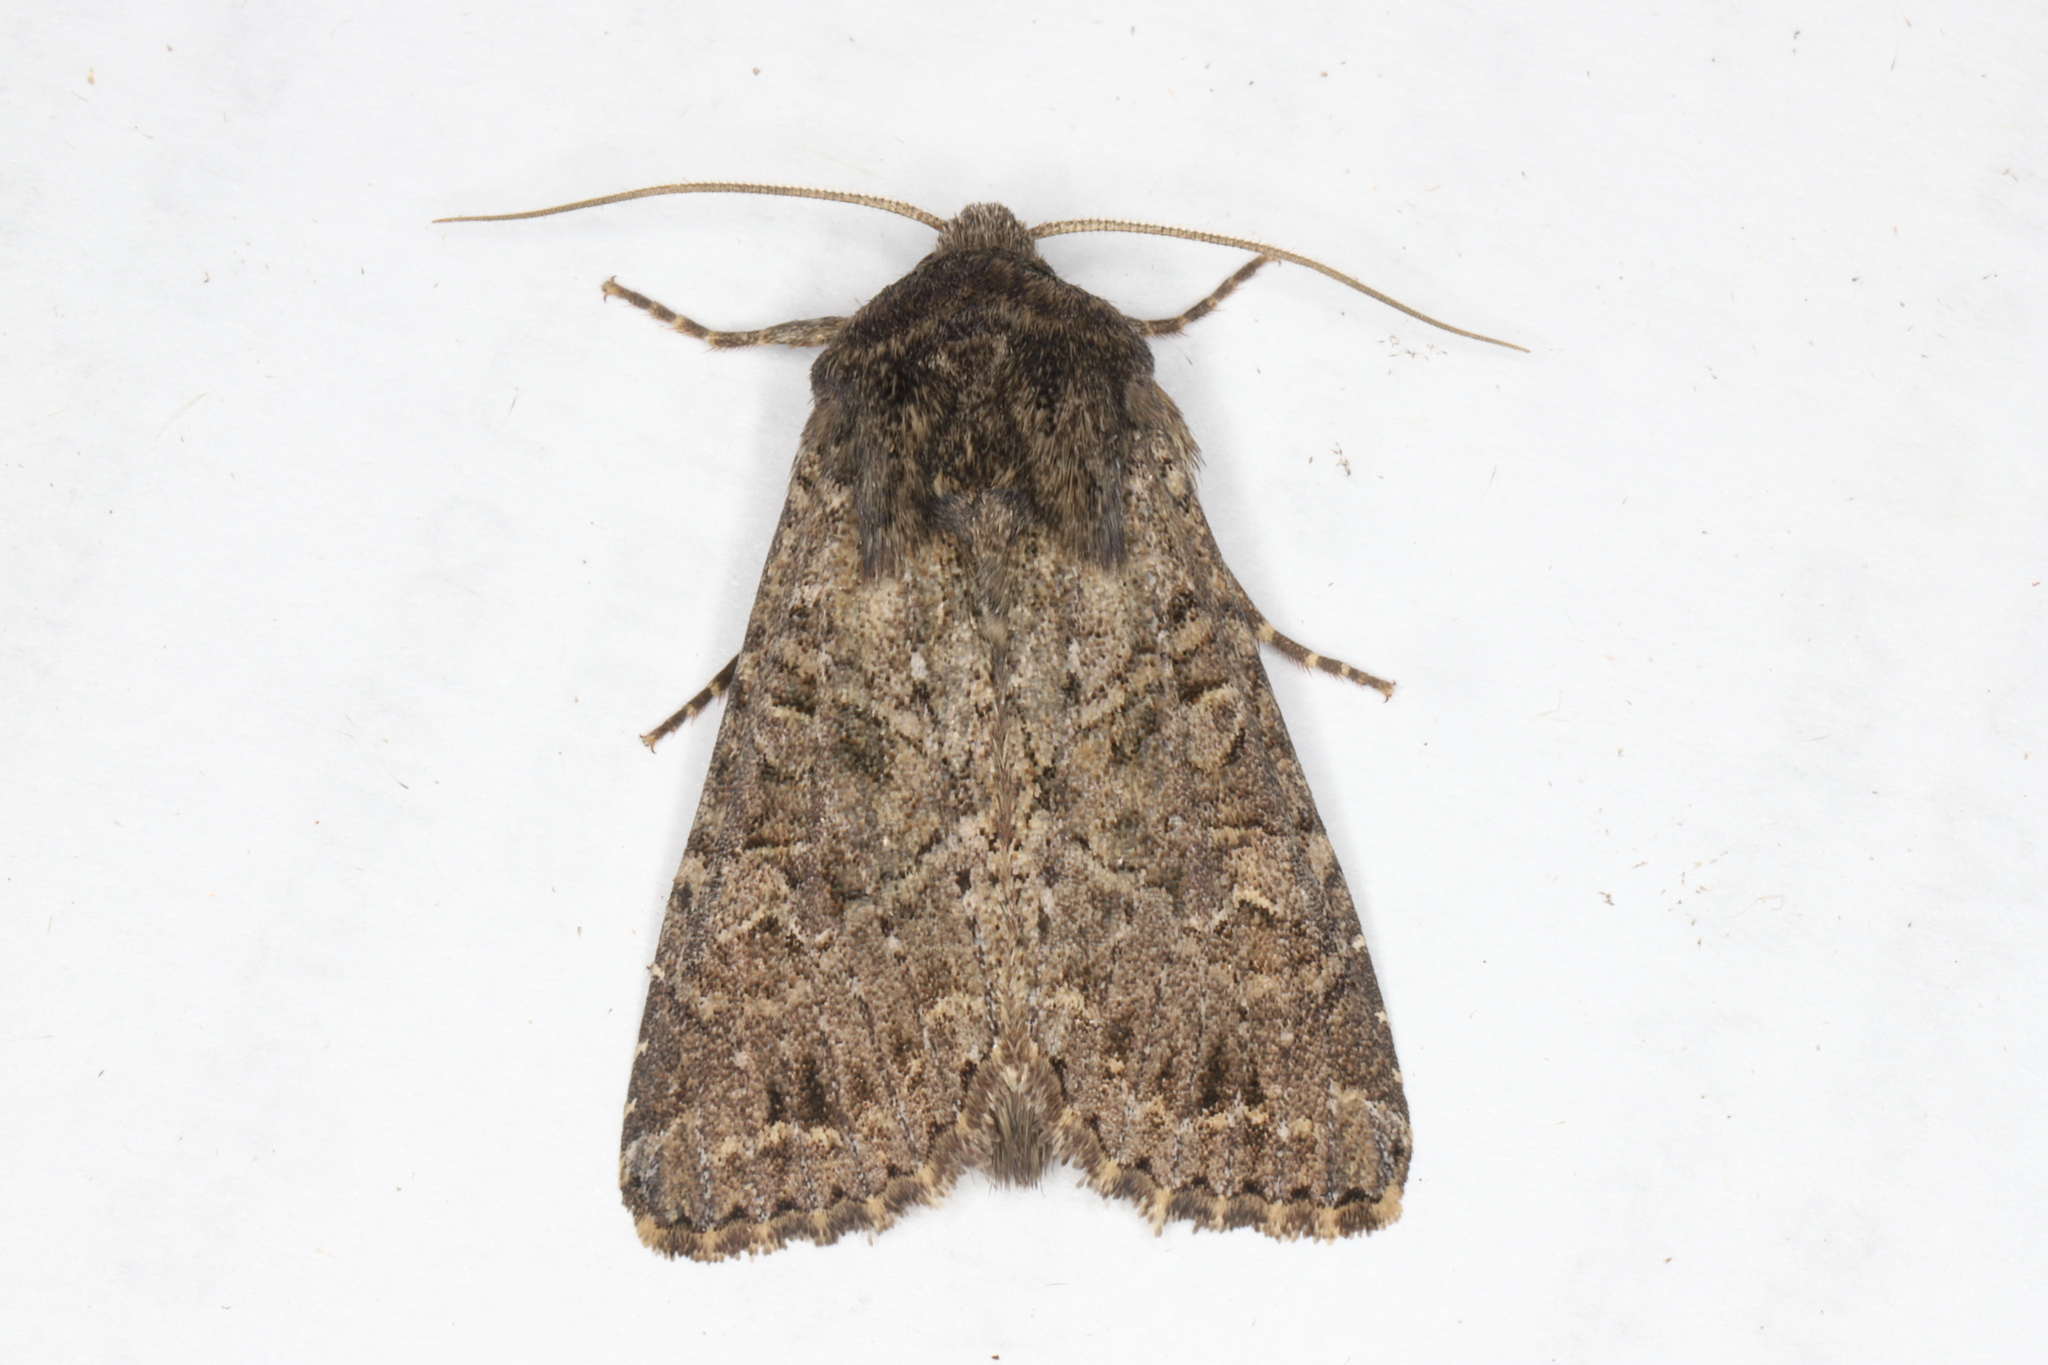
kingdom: Animalia
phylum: Arthropoda
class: Insecta
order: Lepidoptera
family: Noctuidae
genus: Apamea
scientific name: Apamea devastator
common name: Glassy cutworm
